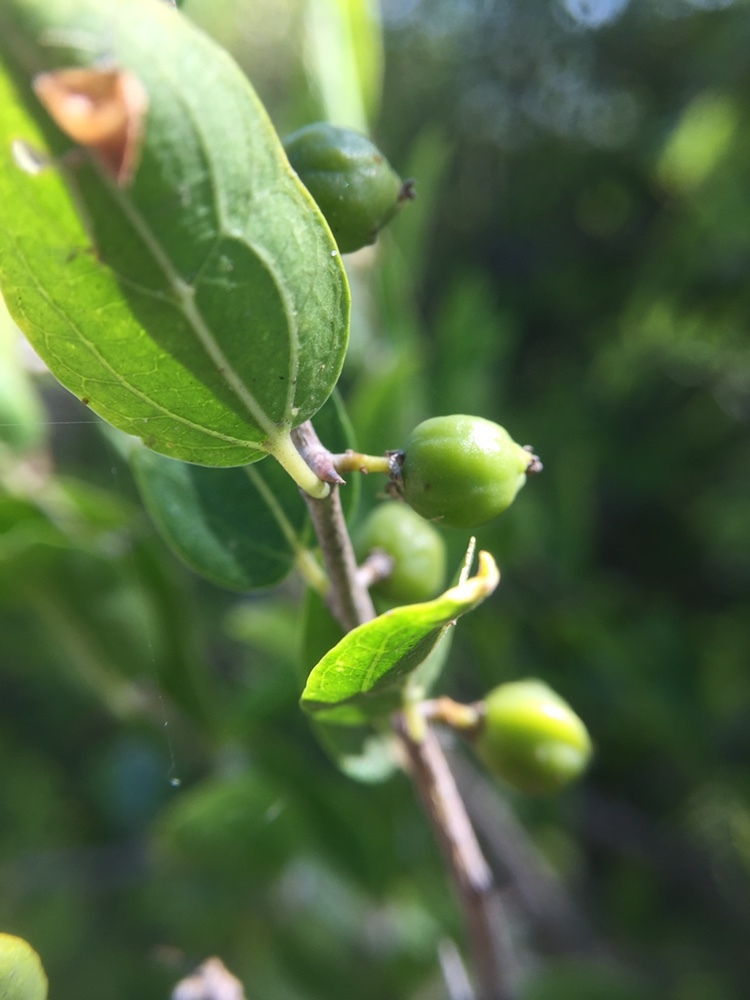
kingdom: Plantae
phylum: Tracheophyta
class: Magnoliopsida
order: Rosales
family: Cannabaceae
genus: Celtis
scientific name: Celtis tala
